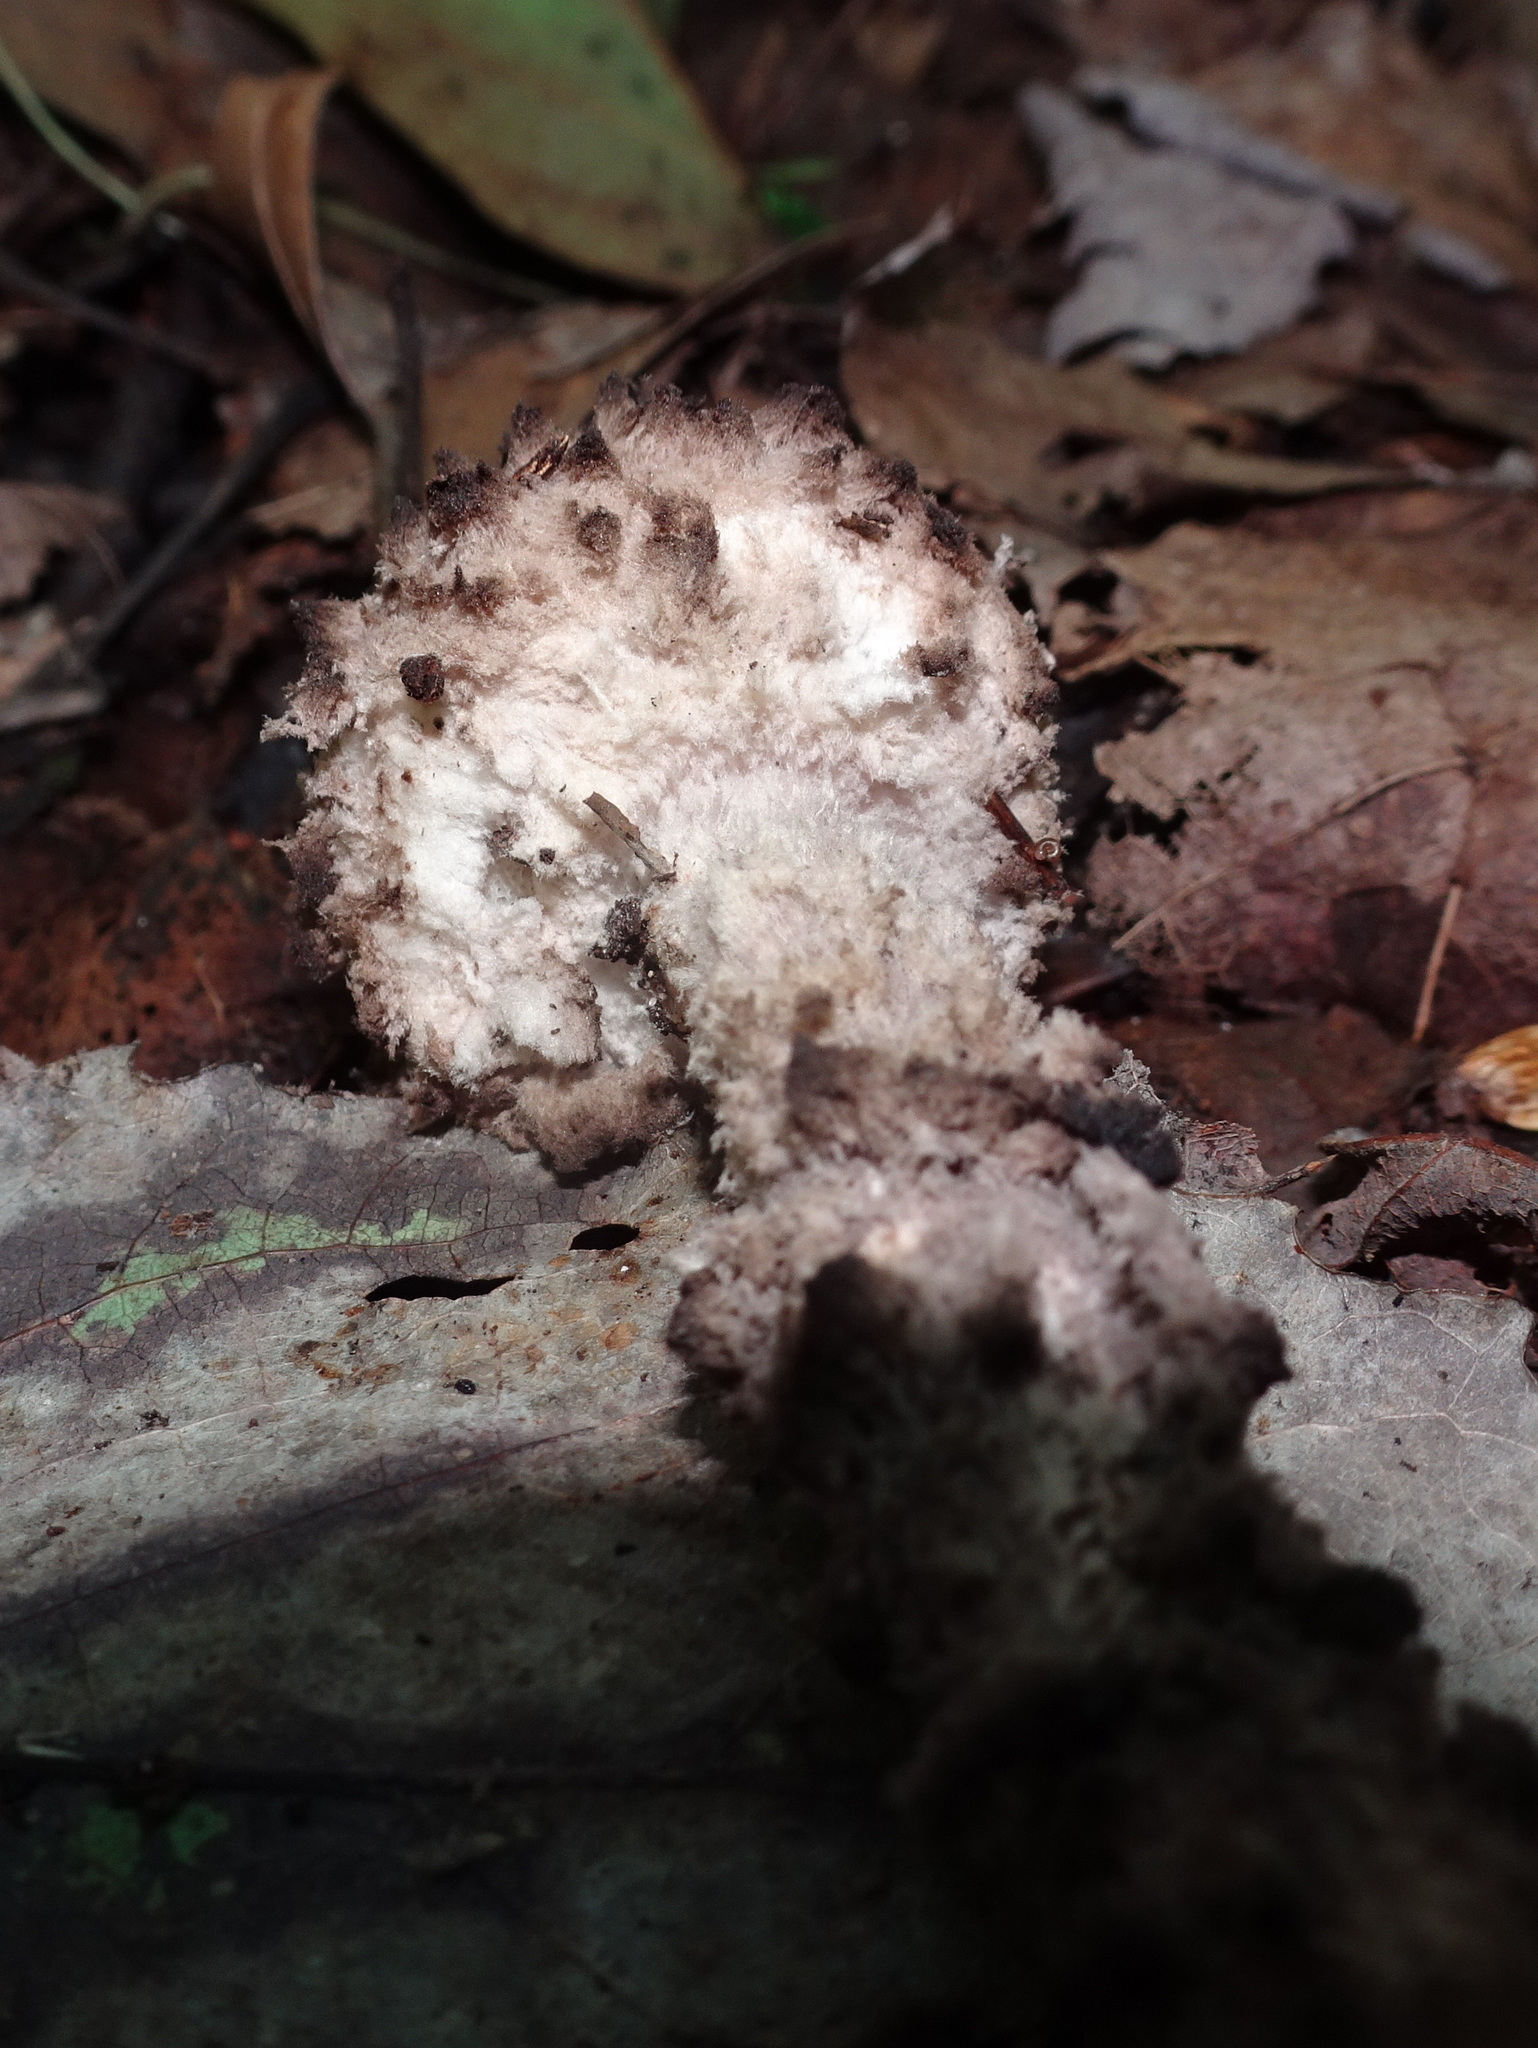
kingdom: Fungi
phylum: Basidiomycota
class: Agaricomycetes
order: Boletales
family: Boletaceae
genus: Strobilomyces
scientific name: Strobilomyces strobilaceus
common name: Old man of the woods
